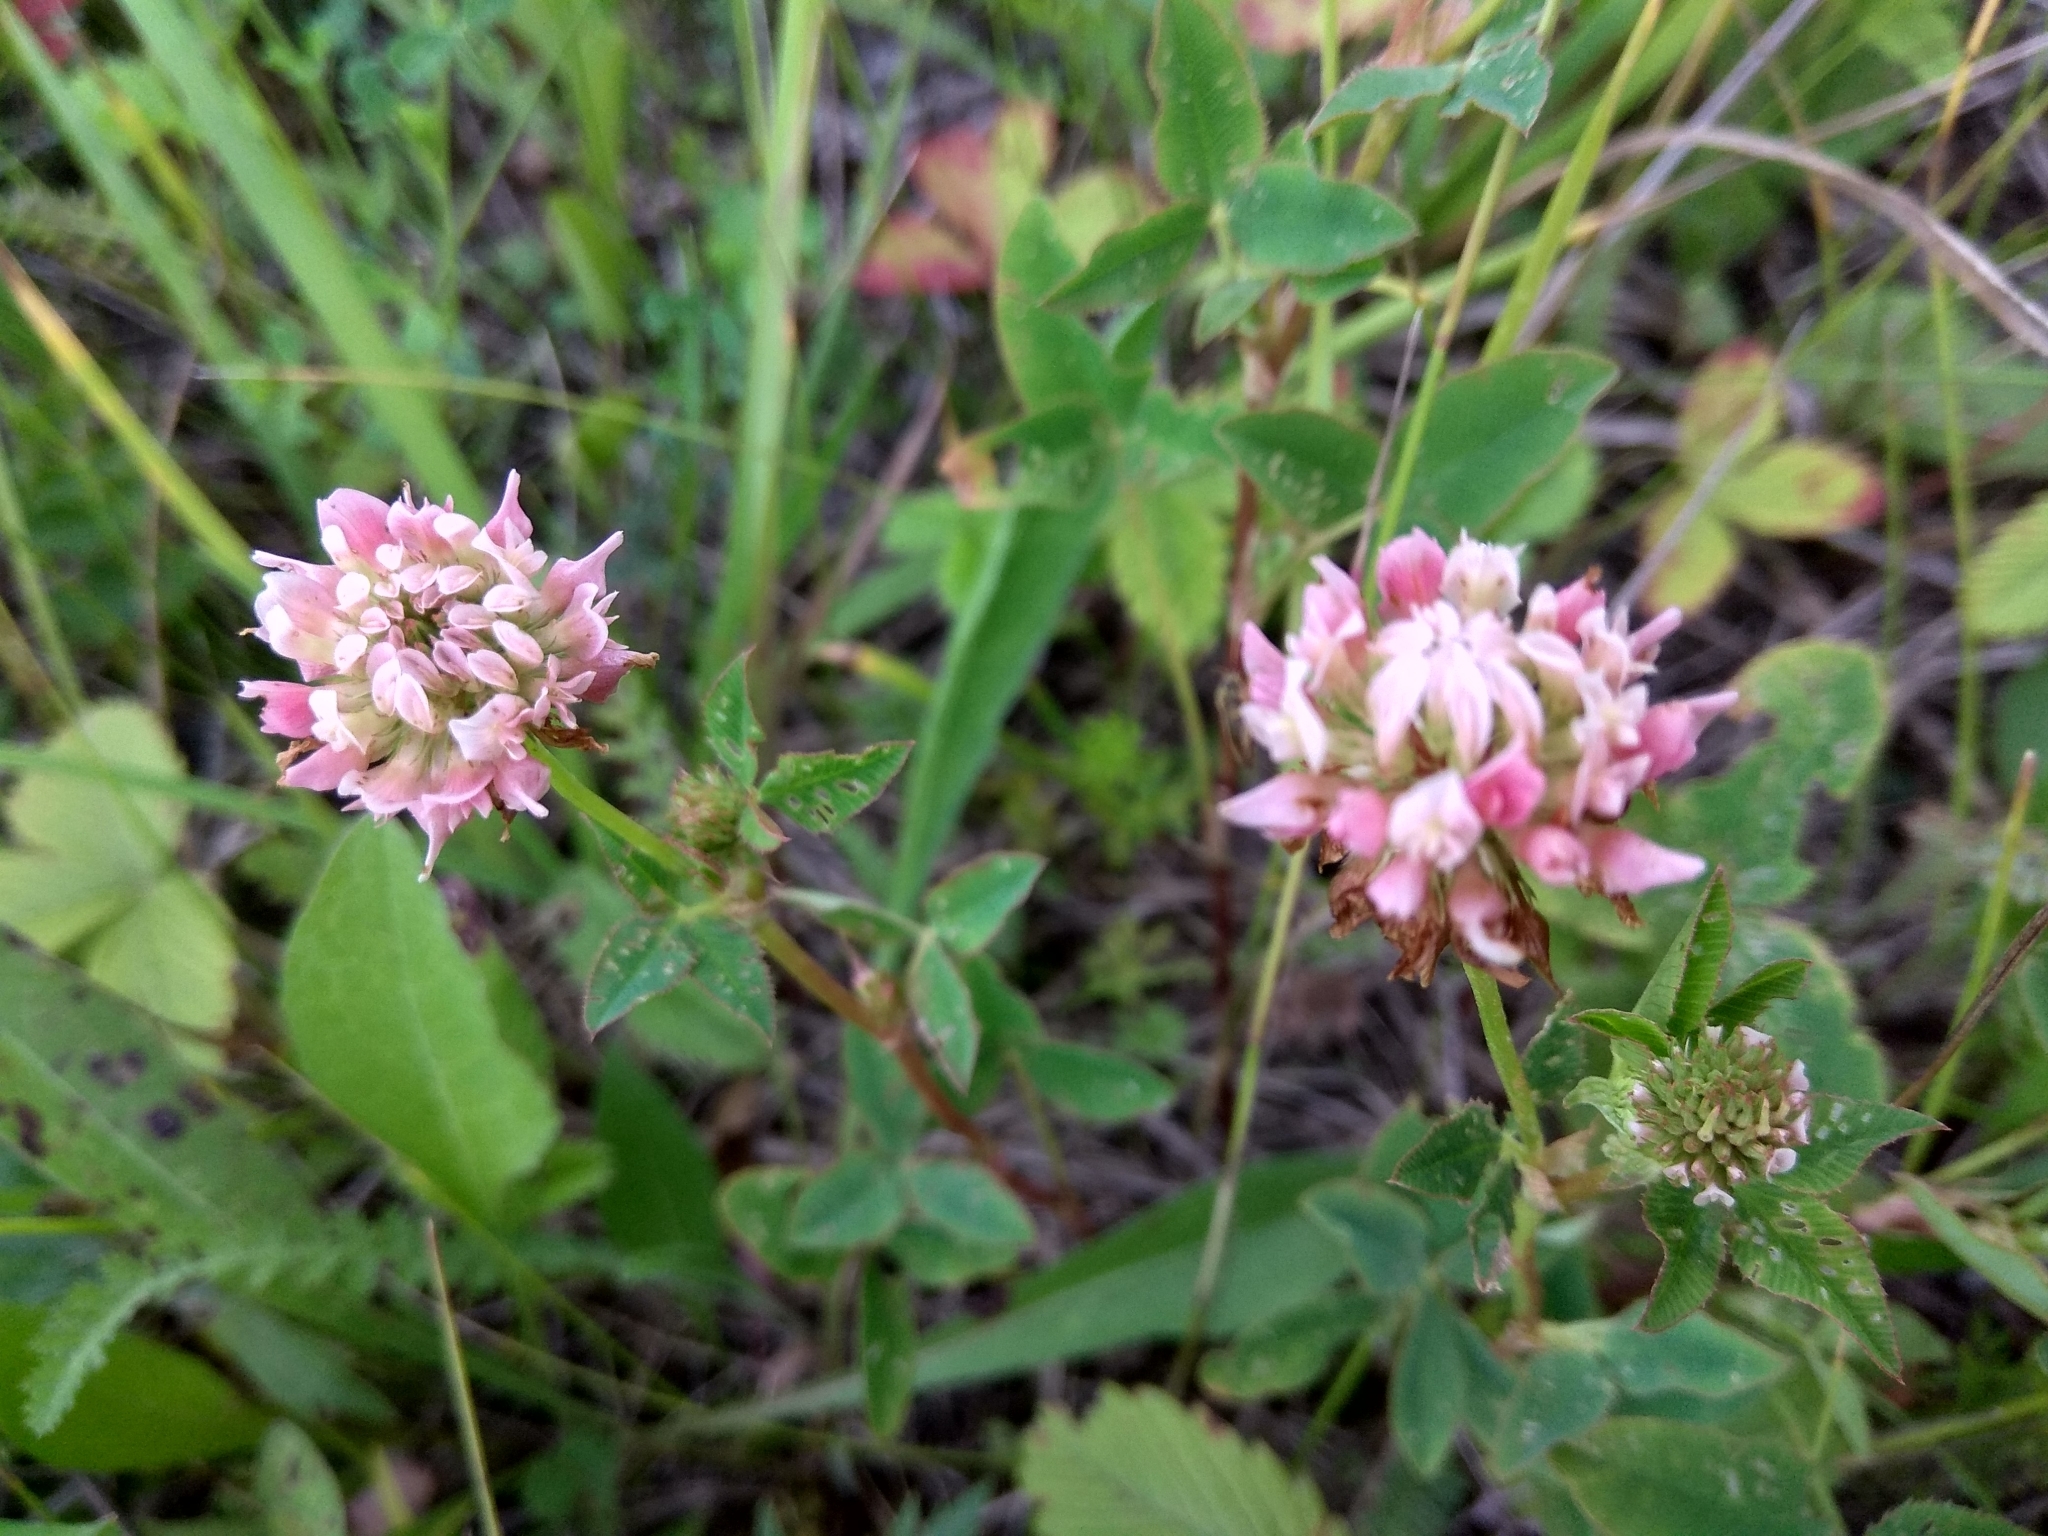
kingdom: Plantae
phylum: Tracheophyta
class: Magnoliopsida
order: Fabales
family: Fabaceae
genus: Trifolium
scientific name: Trifolium hybridum
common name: Alsike clover
